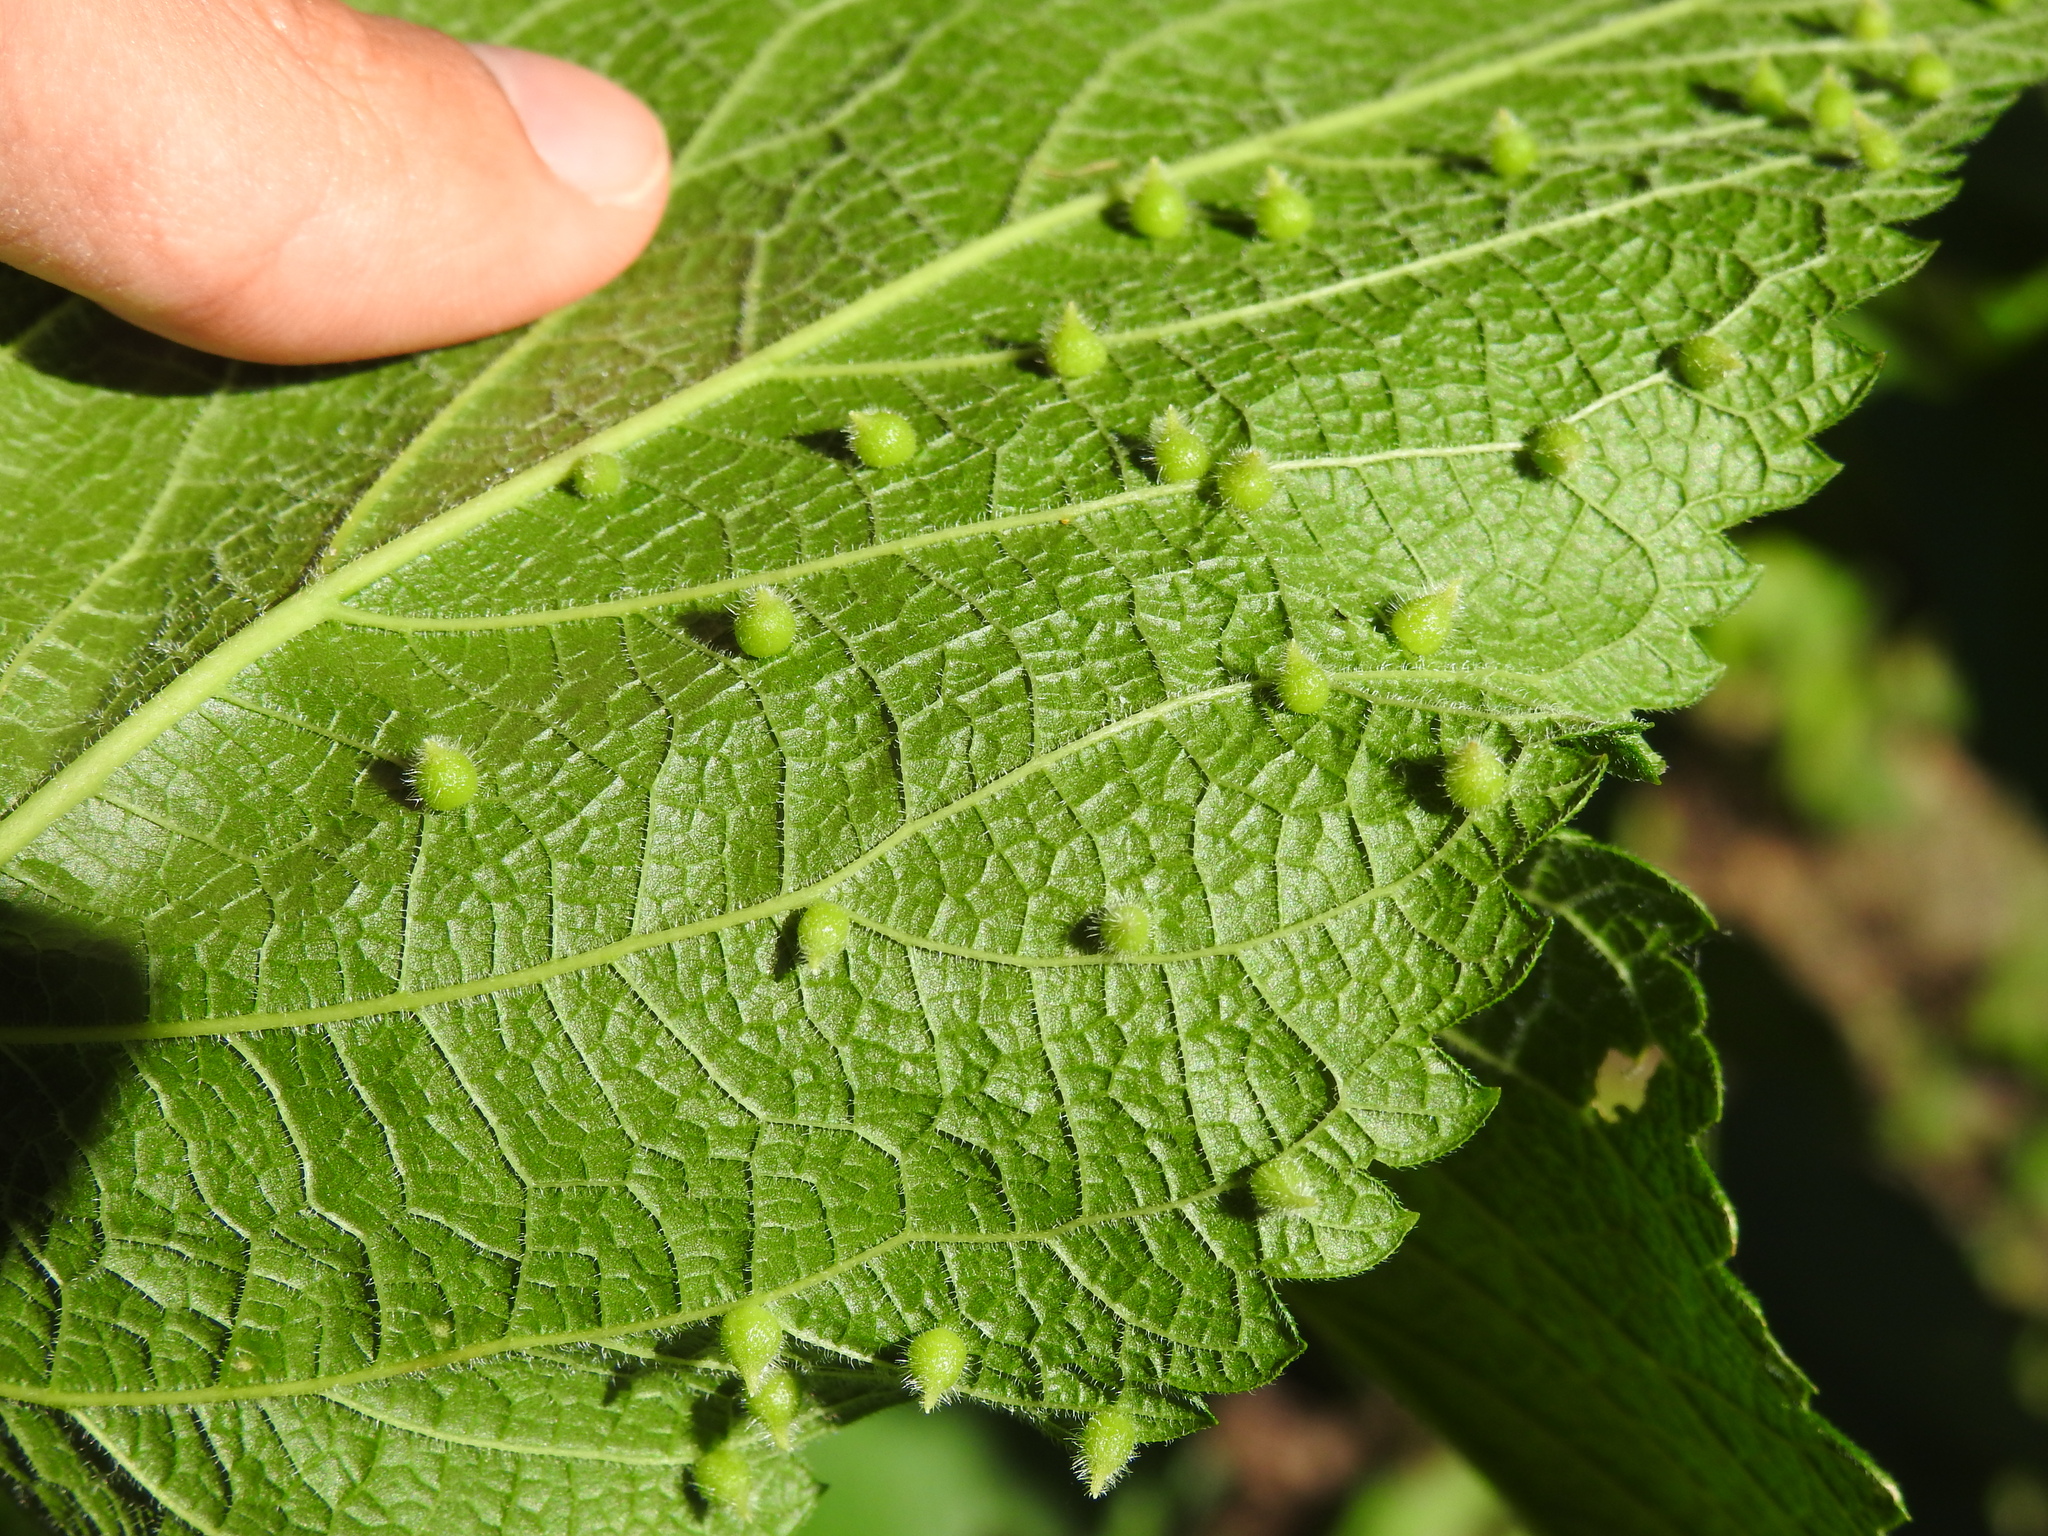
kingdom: Animalia
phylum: Arthropoda
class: Insecta
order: Diptera
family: Cecidomyiidae
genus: Celticecis
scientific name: Celticecis acuminata
